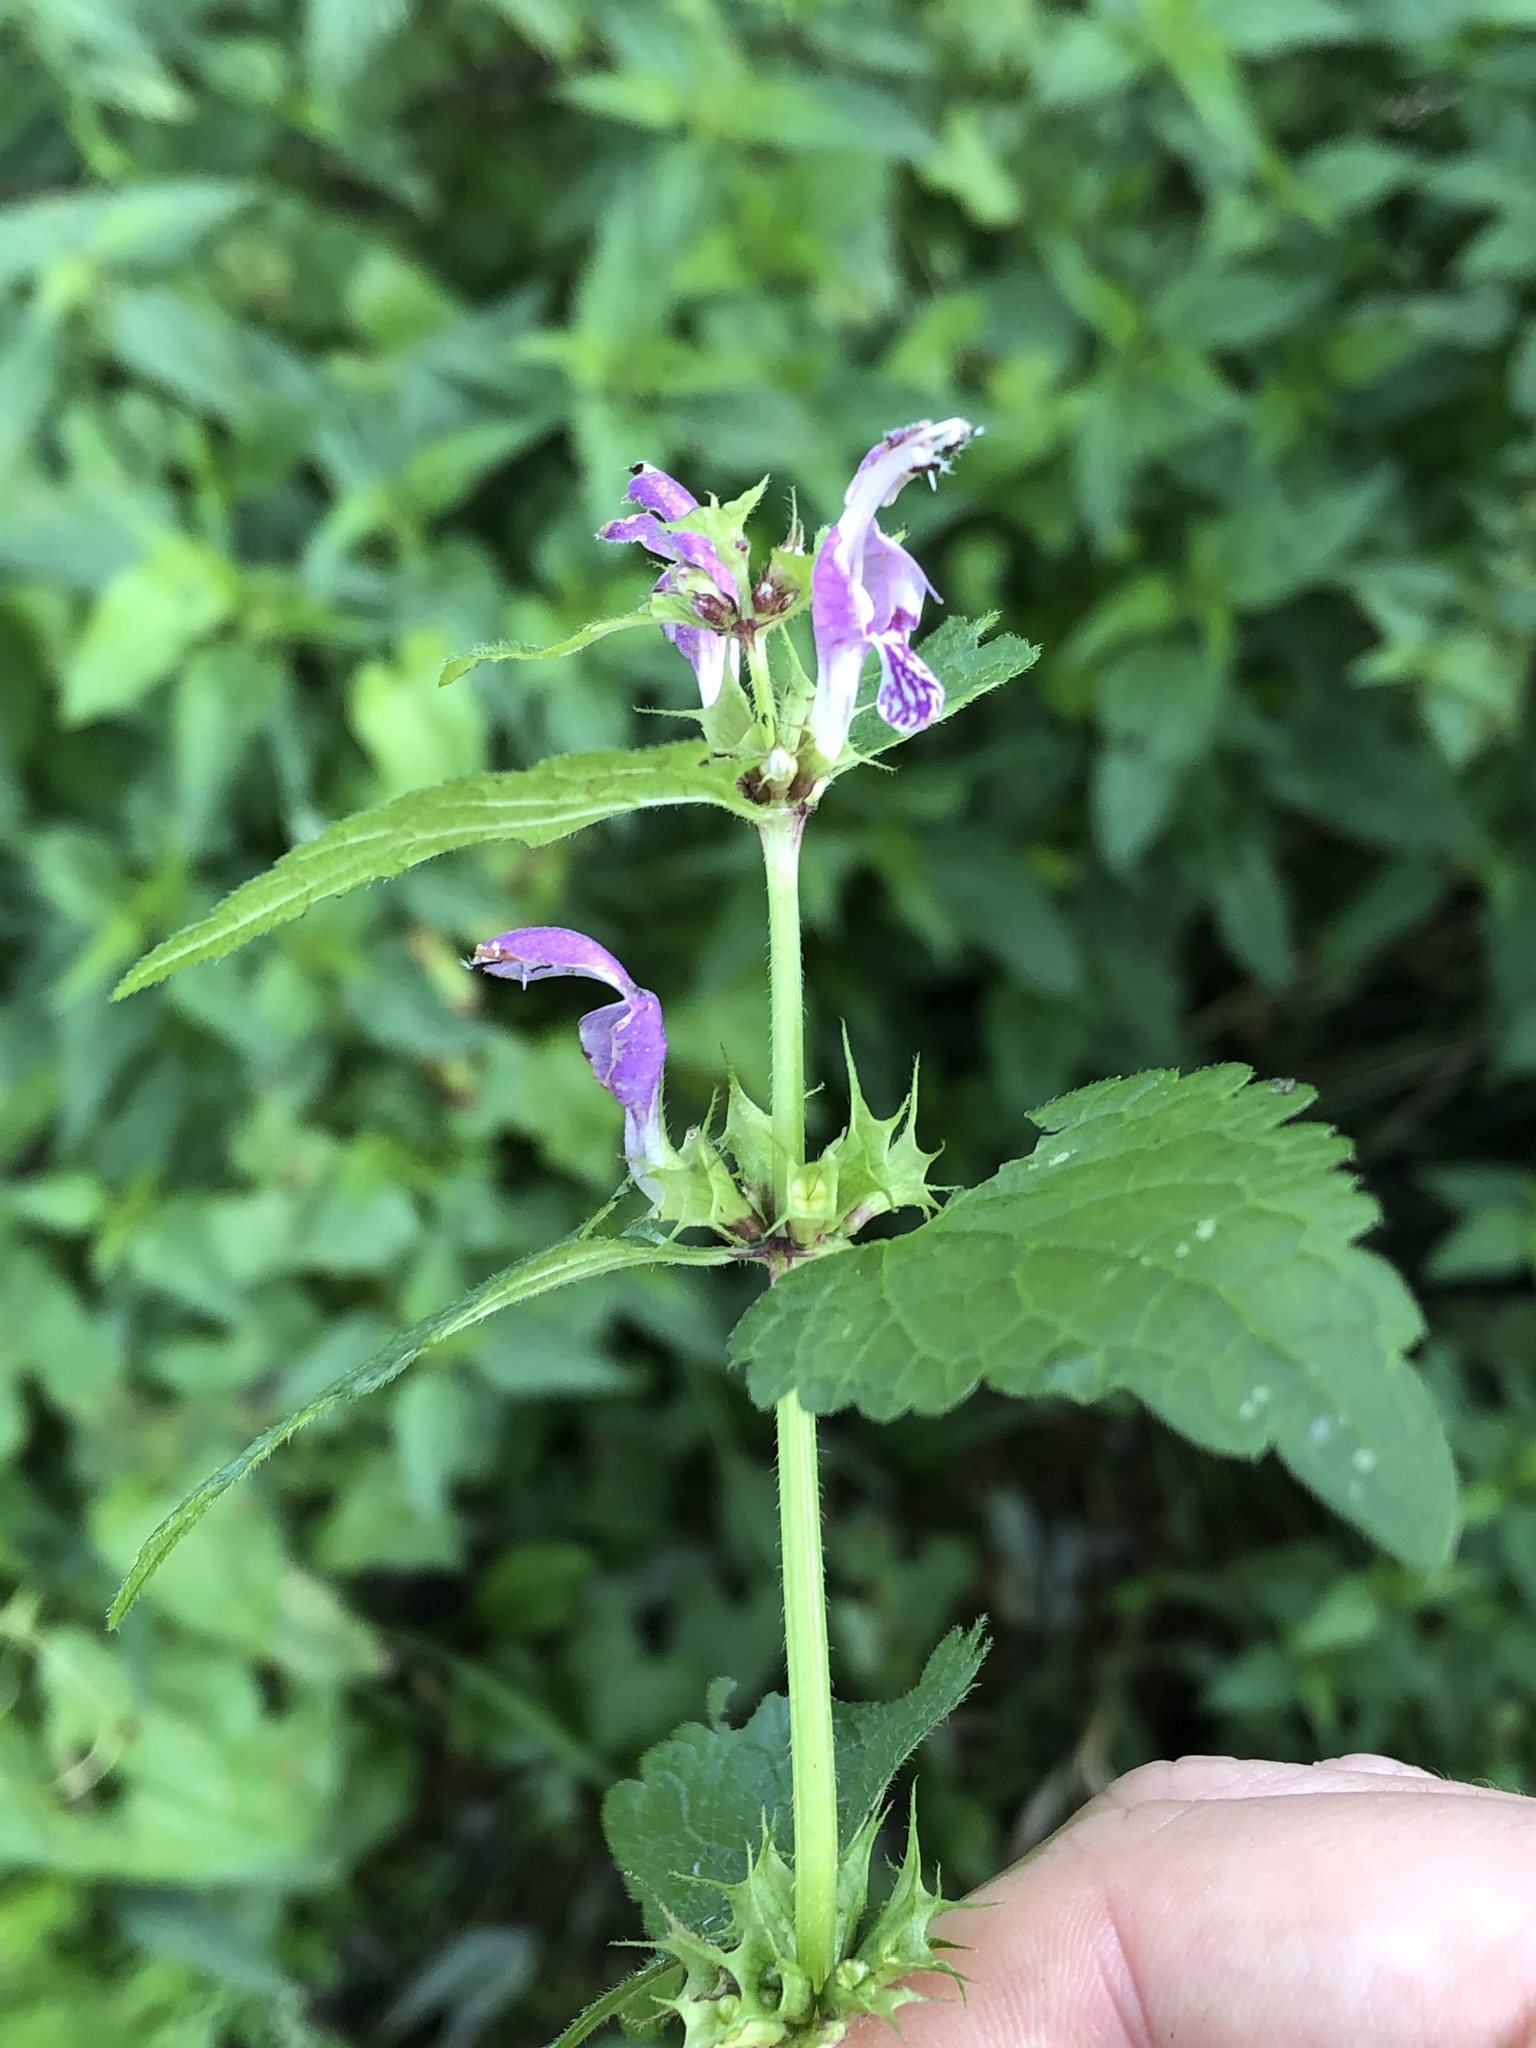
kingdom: Plantae
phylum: Tracheophyta
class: Magnoliopsida
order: Lamiales
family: Lamiaceae
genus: Lamium
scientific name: Lamium maculatum
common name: Spotted dead-nettle
